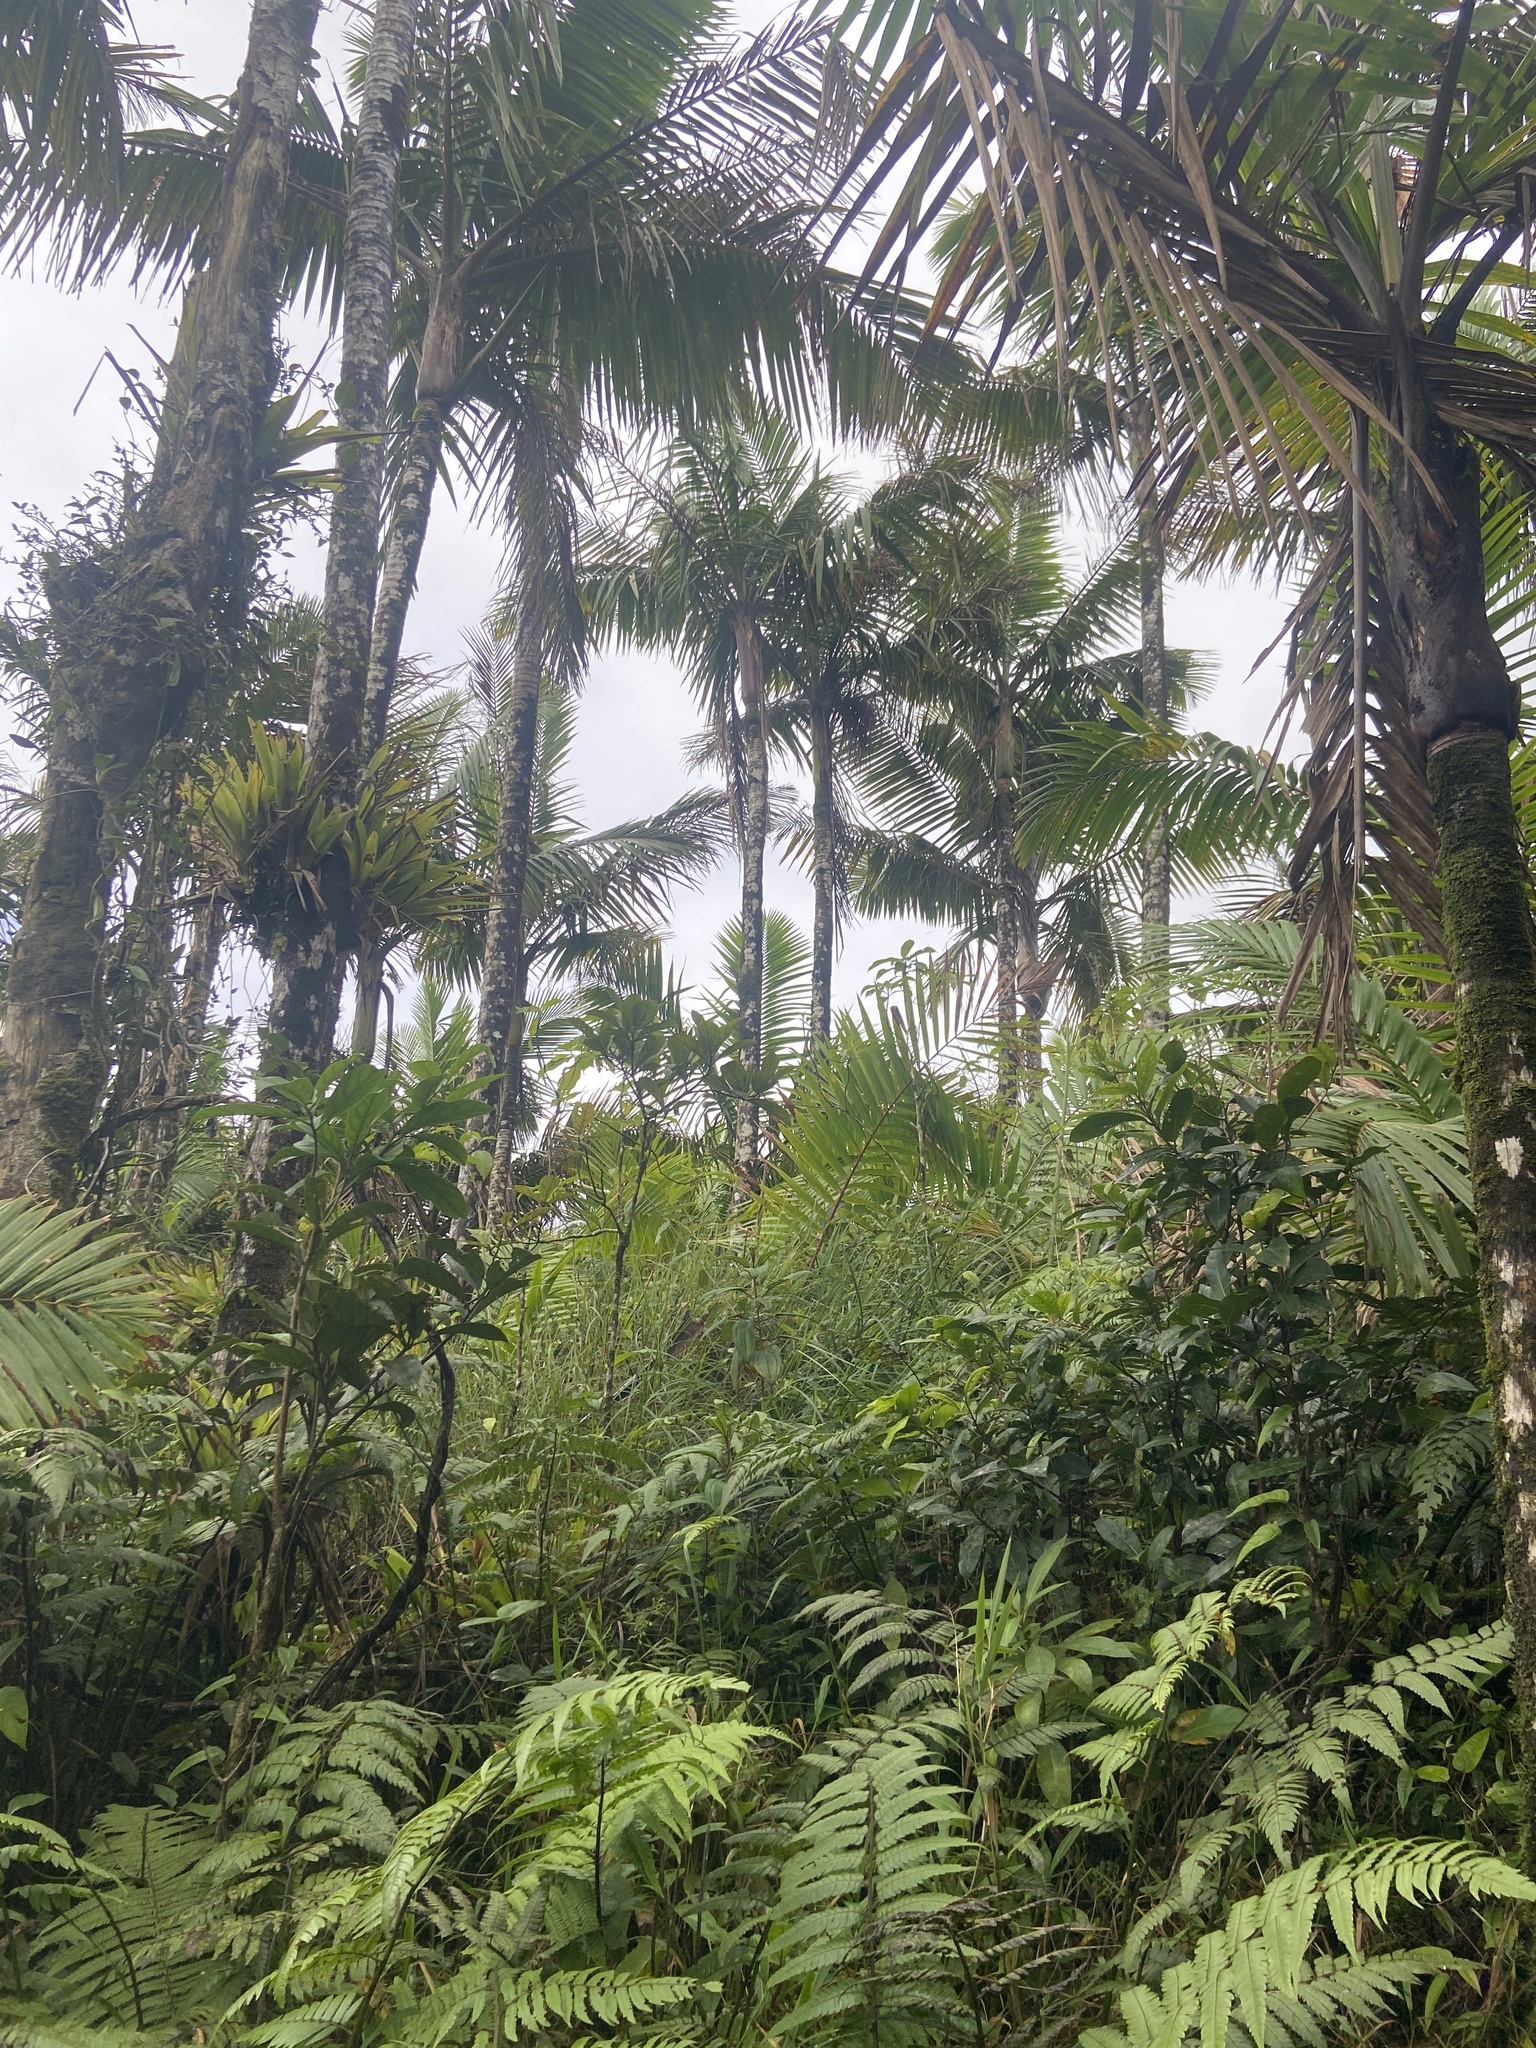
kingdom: Plantae
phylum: Tracheophyta
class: Liliopsida
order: Arecales
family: Arecaceae
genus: Prestoea
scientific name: Prestoea acuminata
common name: Sierran palm
